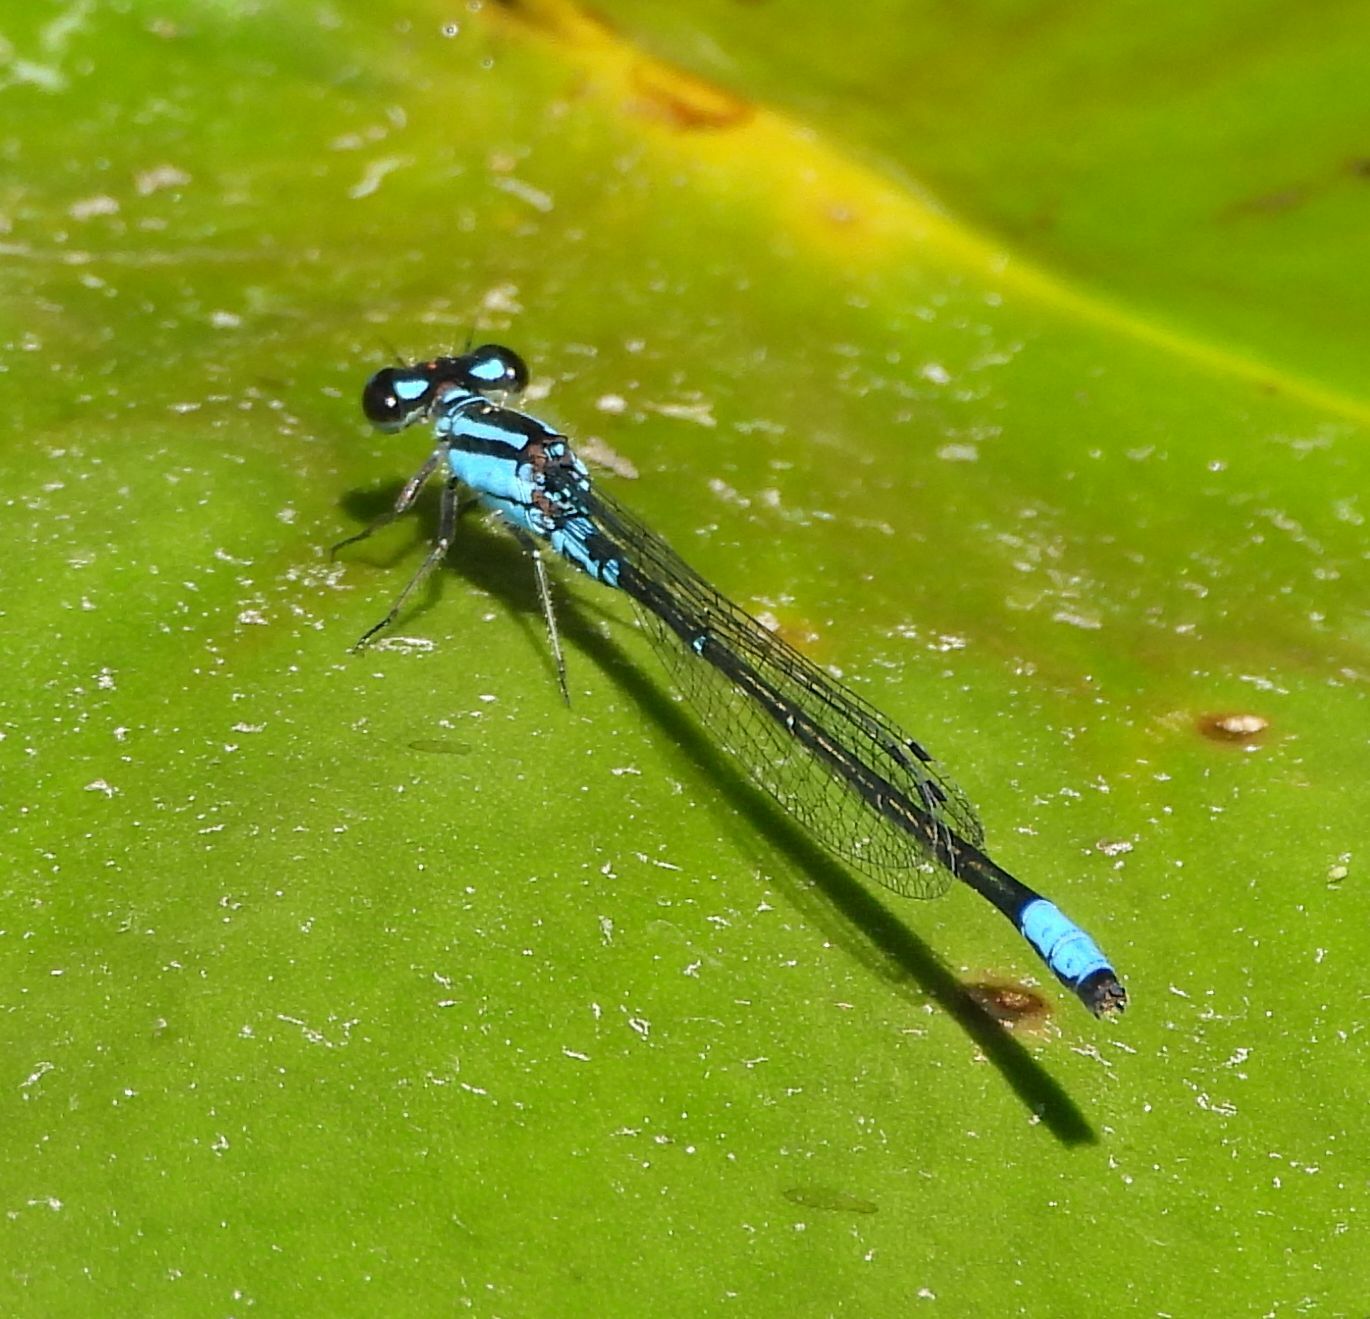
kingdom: Animalia
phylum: Arthropoda
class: Insecta
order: Odonata
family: Coenagrionidae
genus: Enallagma
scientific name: Enallagma geminatum
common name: Skimming bluet
